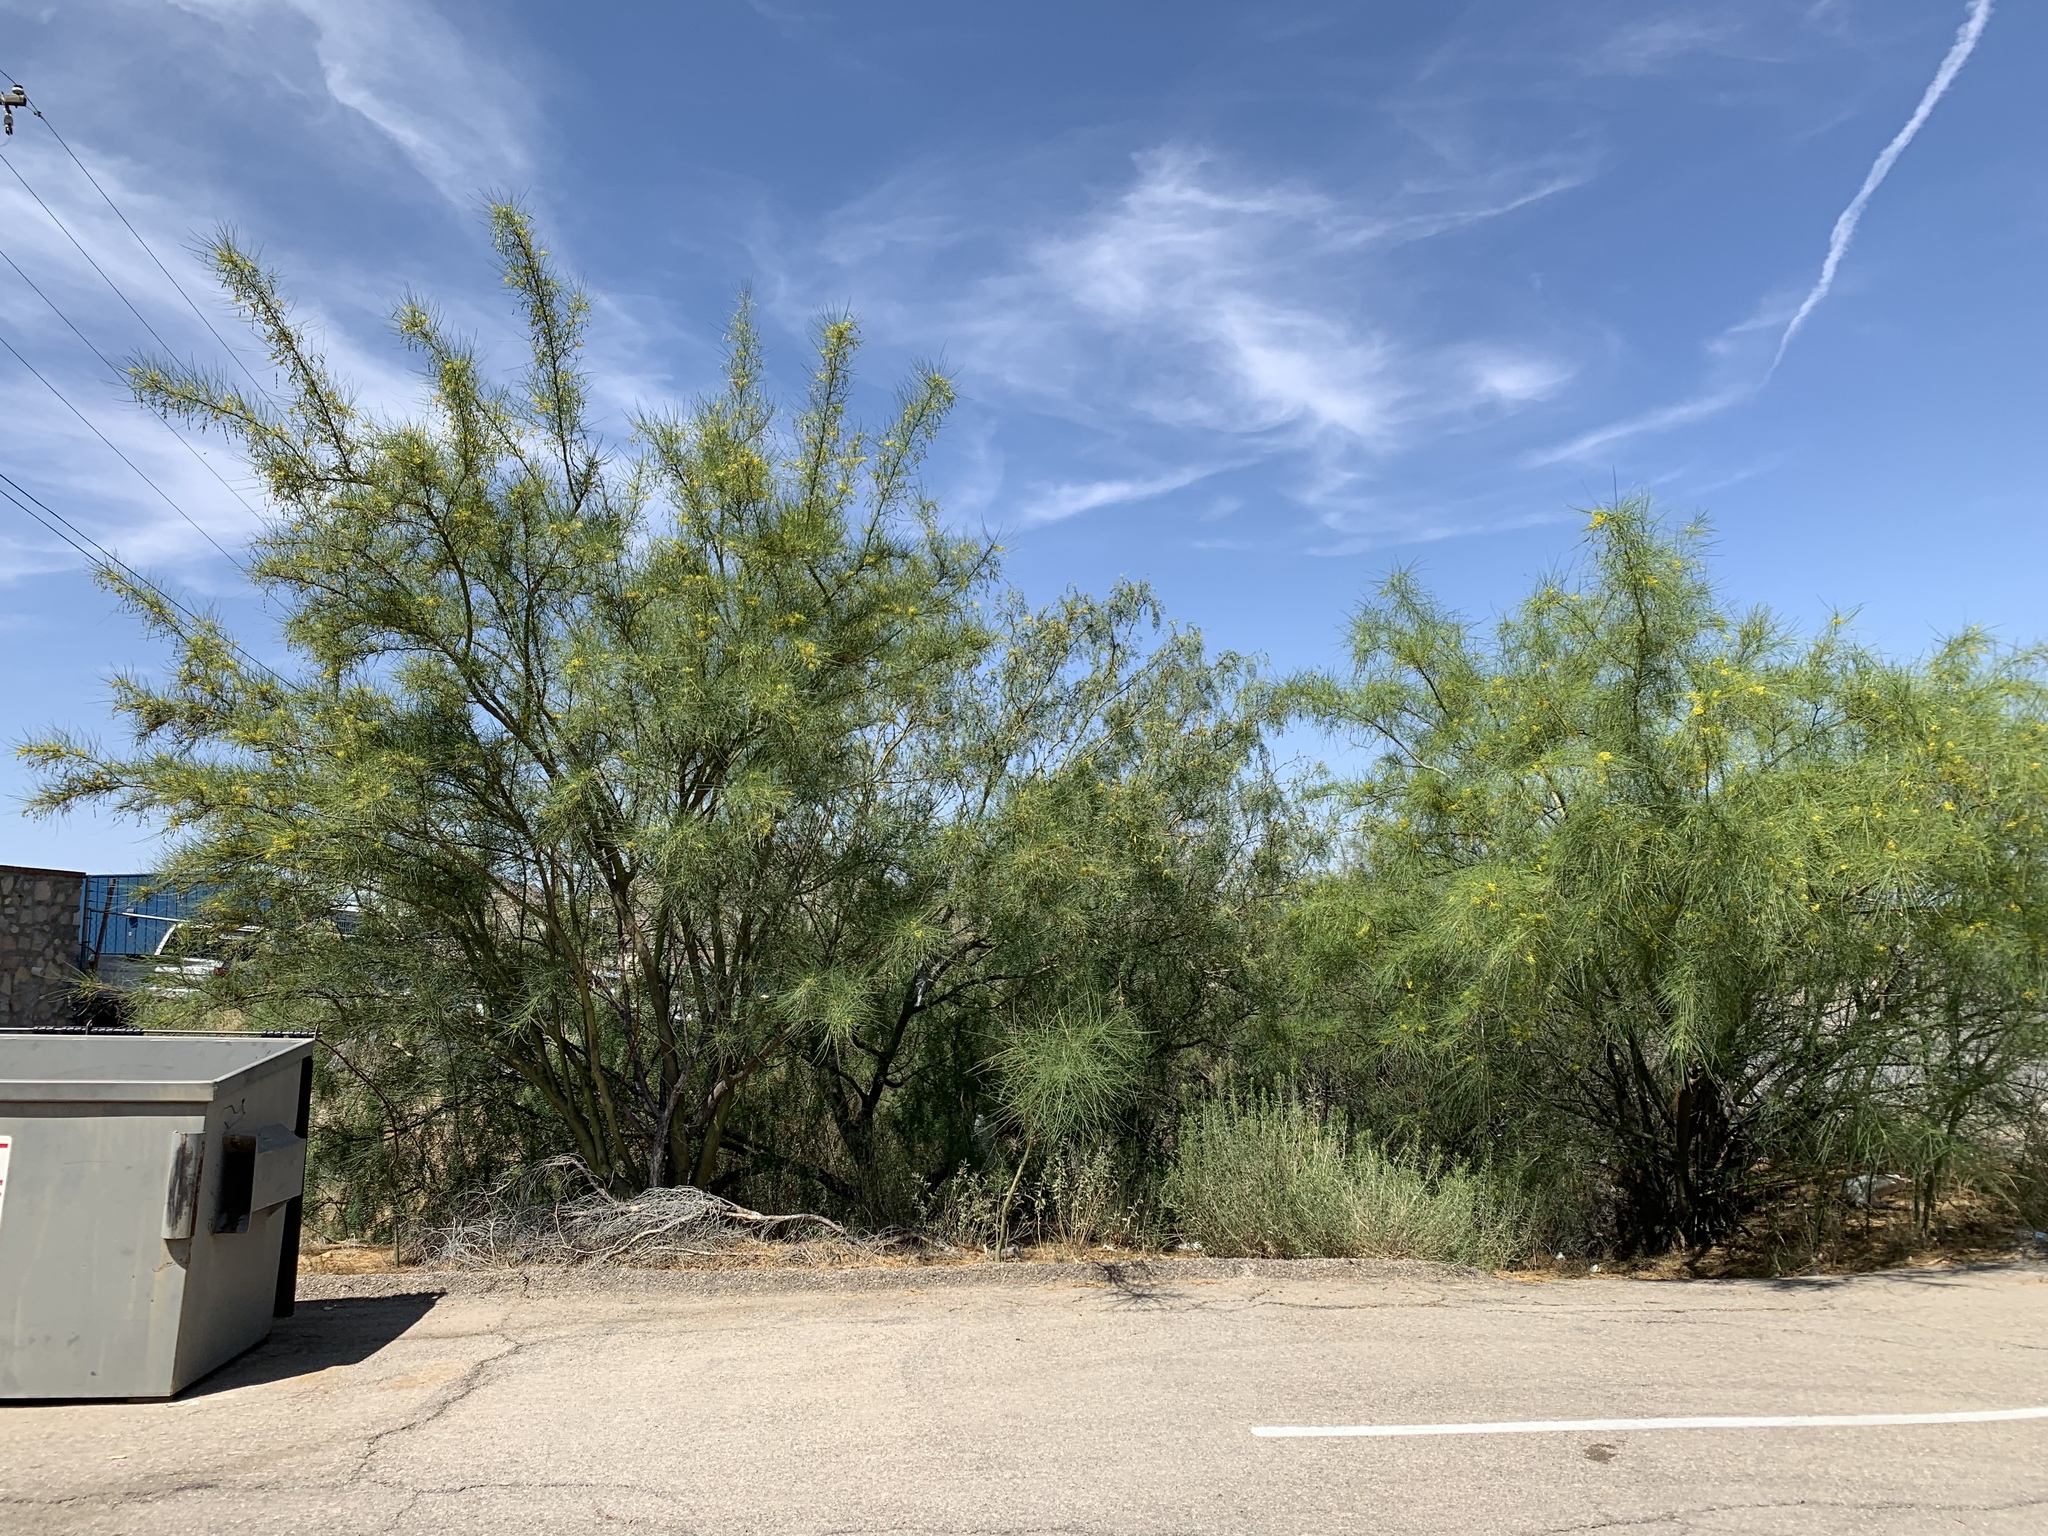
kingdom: Plantae
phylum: Tracheophyta
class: Magnoliopsida
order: Fabales
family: Fabaceae
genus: Parkinsonia
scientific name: Parkinsonia aculeata
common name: Jerusalem thorn
